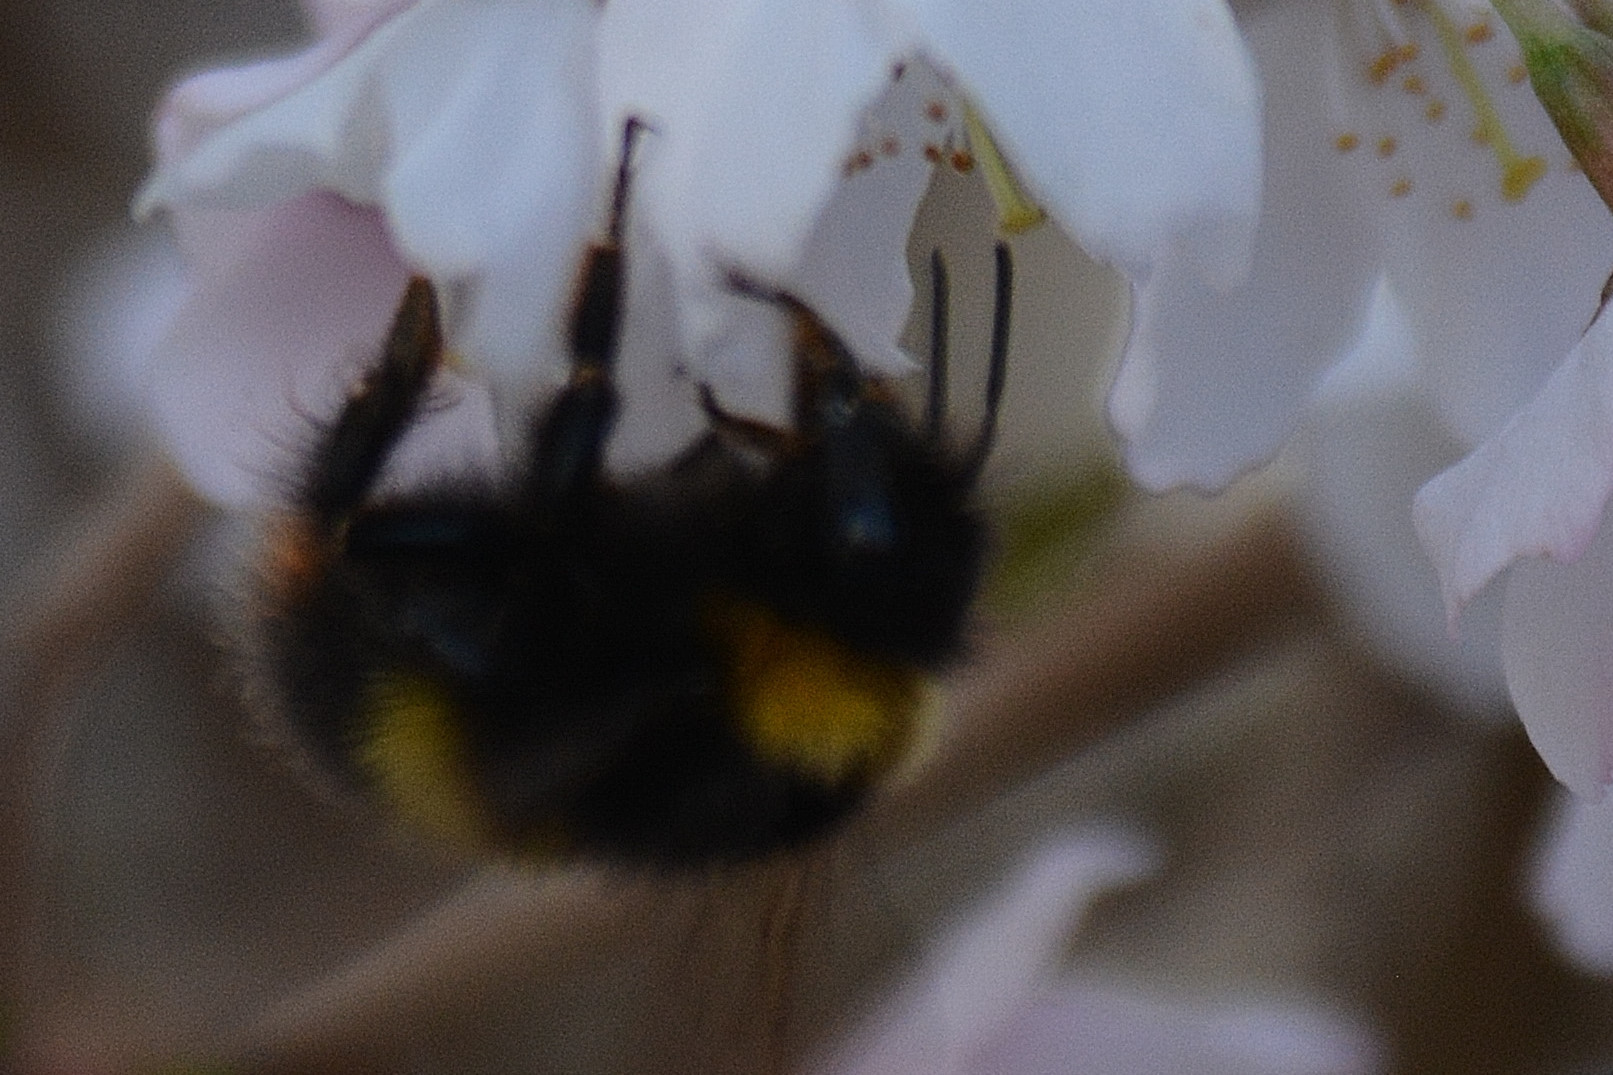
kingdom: Animalia
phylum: Arthropoda
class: Insecta
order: Hymenoptera
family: Apidae
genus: Bombus
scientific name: Bombus pratorum
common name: Early humble-bee
